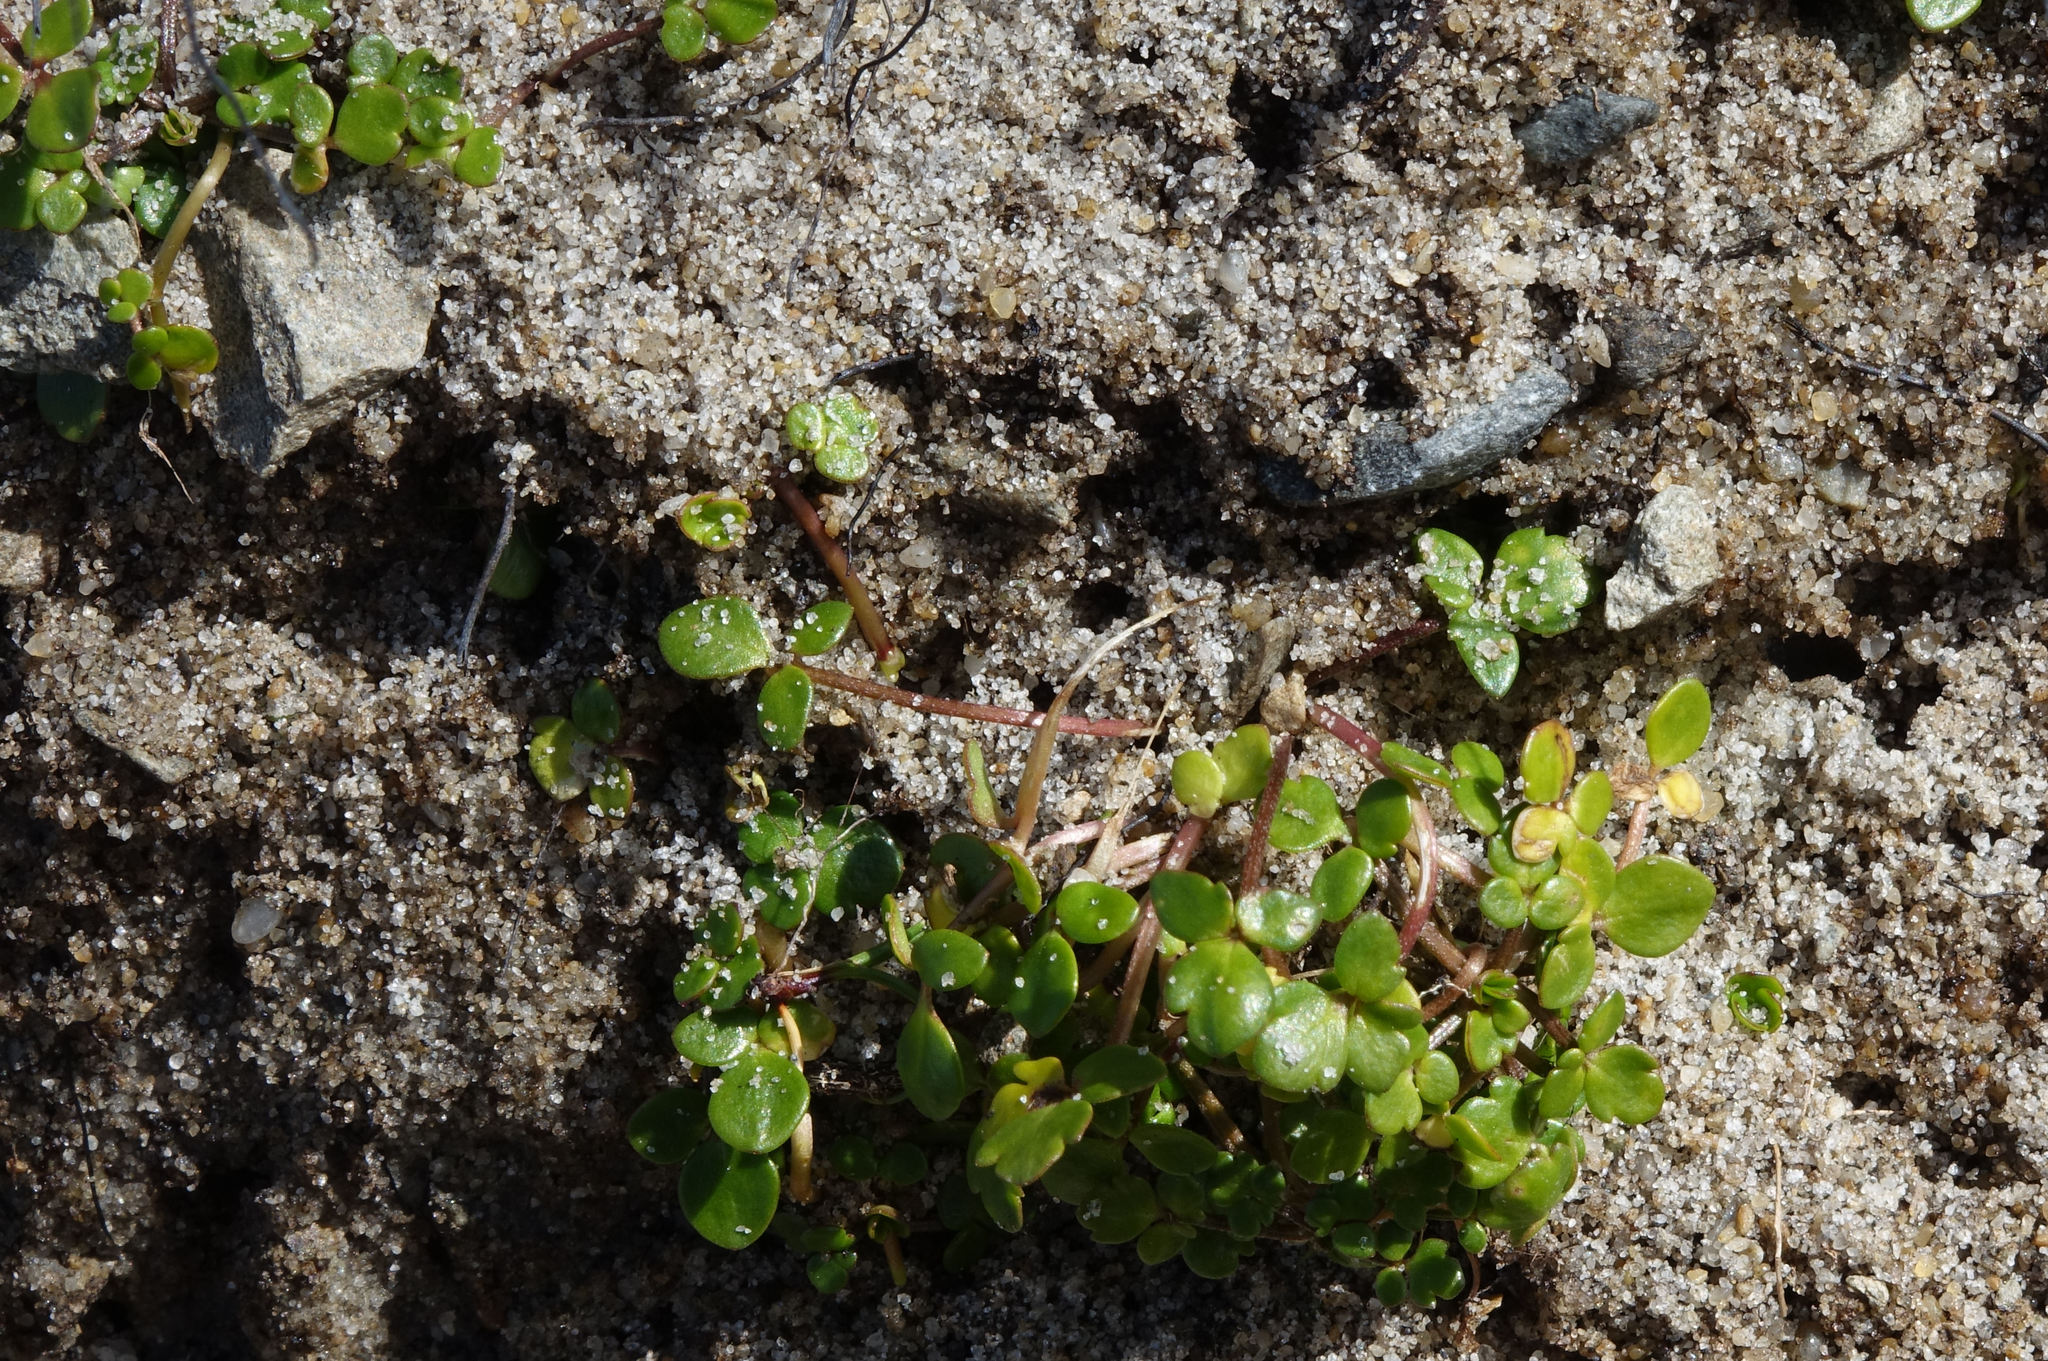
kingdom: Plantae
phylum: Tracheophyta
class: Magnoliopsida
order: Ranunculales
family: Ranunculaceae
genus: Ranunculus
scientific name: Ranunculus acaulis
